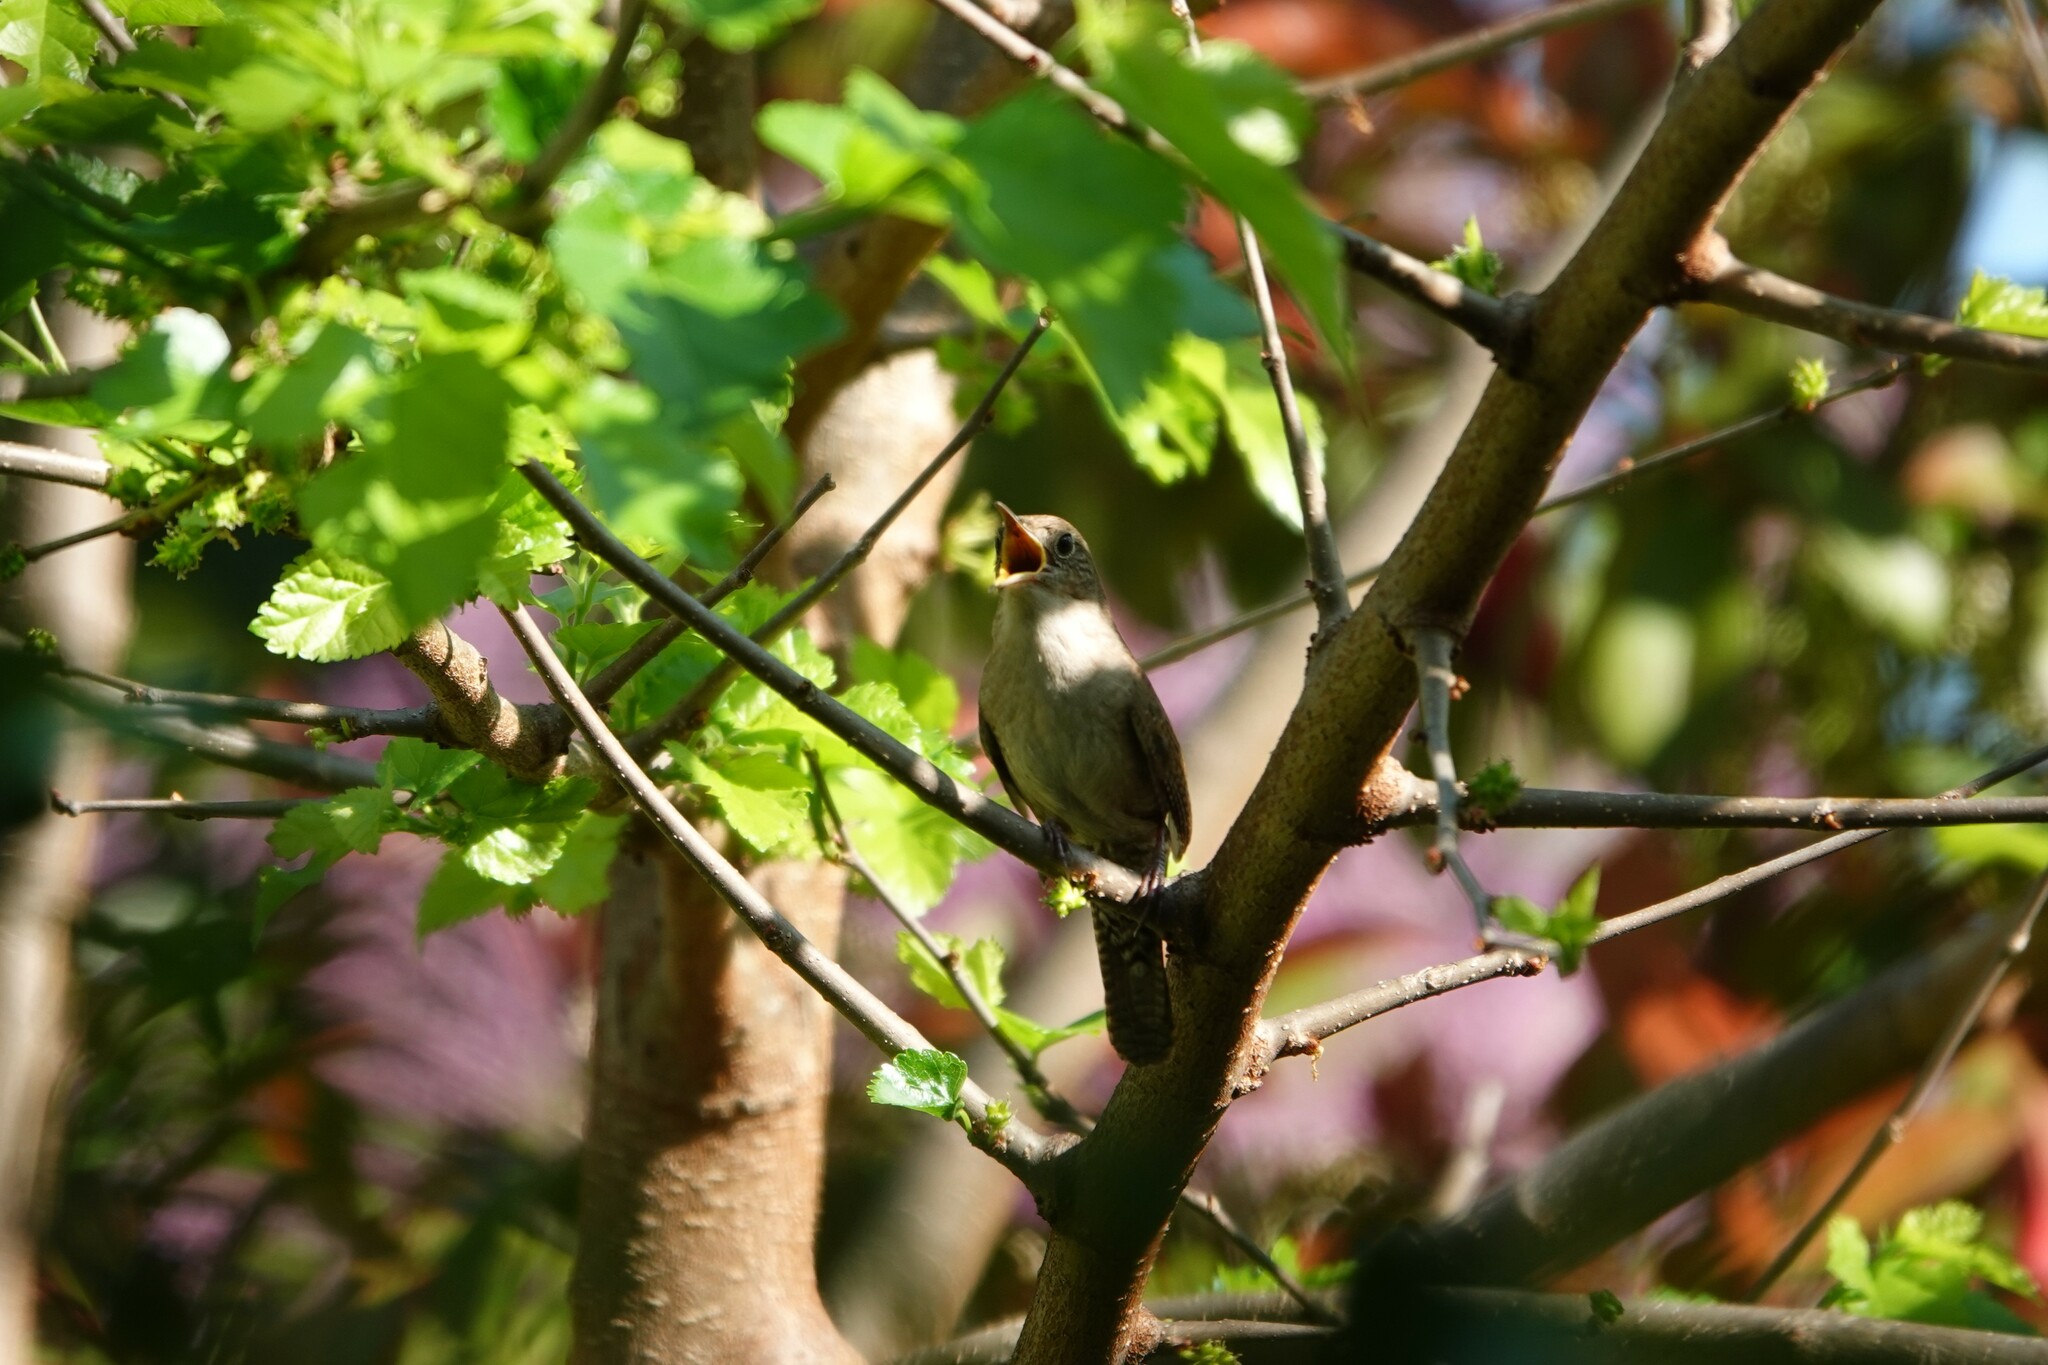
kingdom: Animalia
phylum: Chordata
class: Aves
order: Passeriformes
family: Troglodytidae
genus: Troglodytes
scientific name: Troglodytes aedon
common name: House wren
